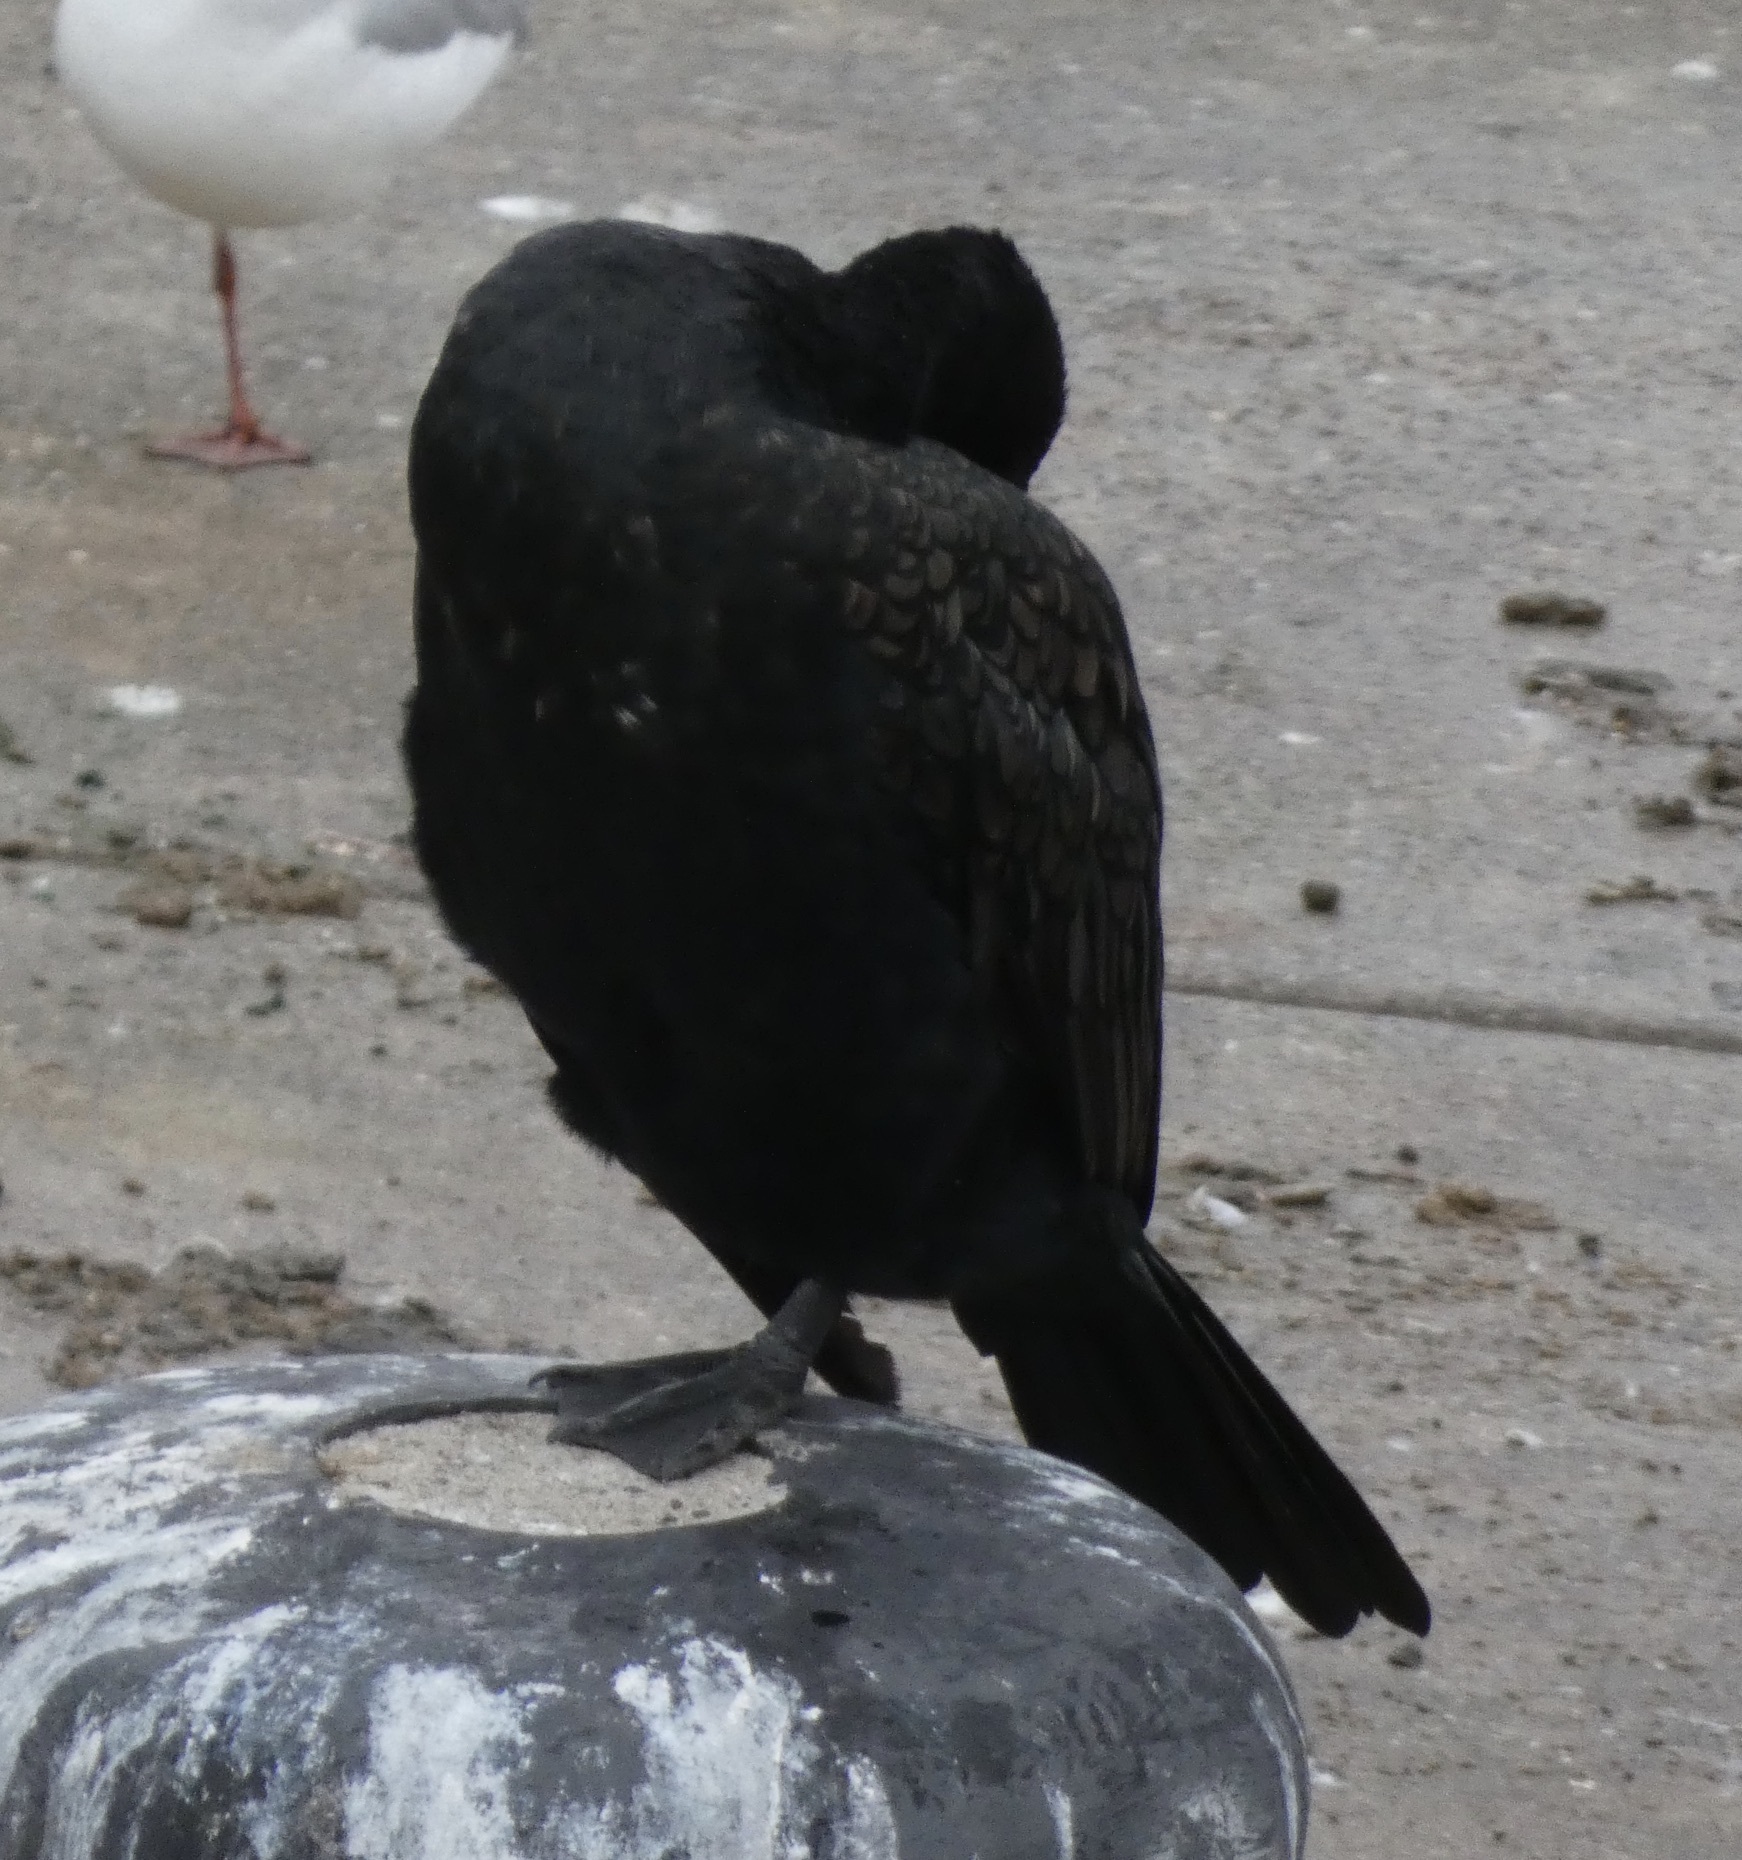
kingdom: Animalia
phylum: Chordata
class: Aves
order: Suliformes
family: Phalacrocoracidae
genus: Phalacrocorax
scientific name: Phalacrocorax carbo
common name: Great cormorant
